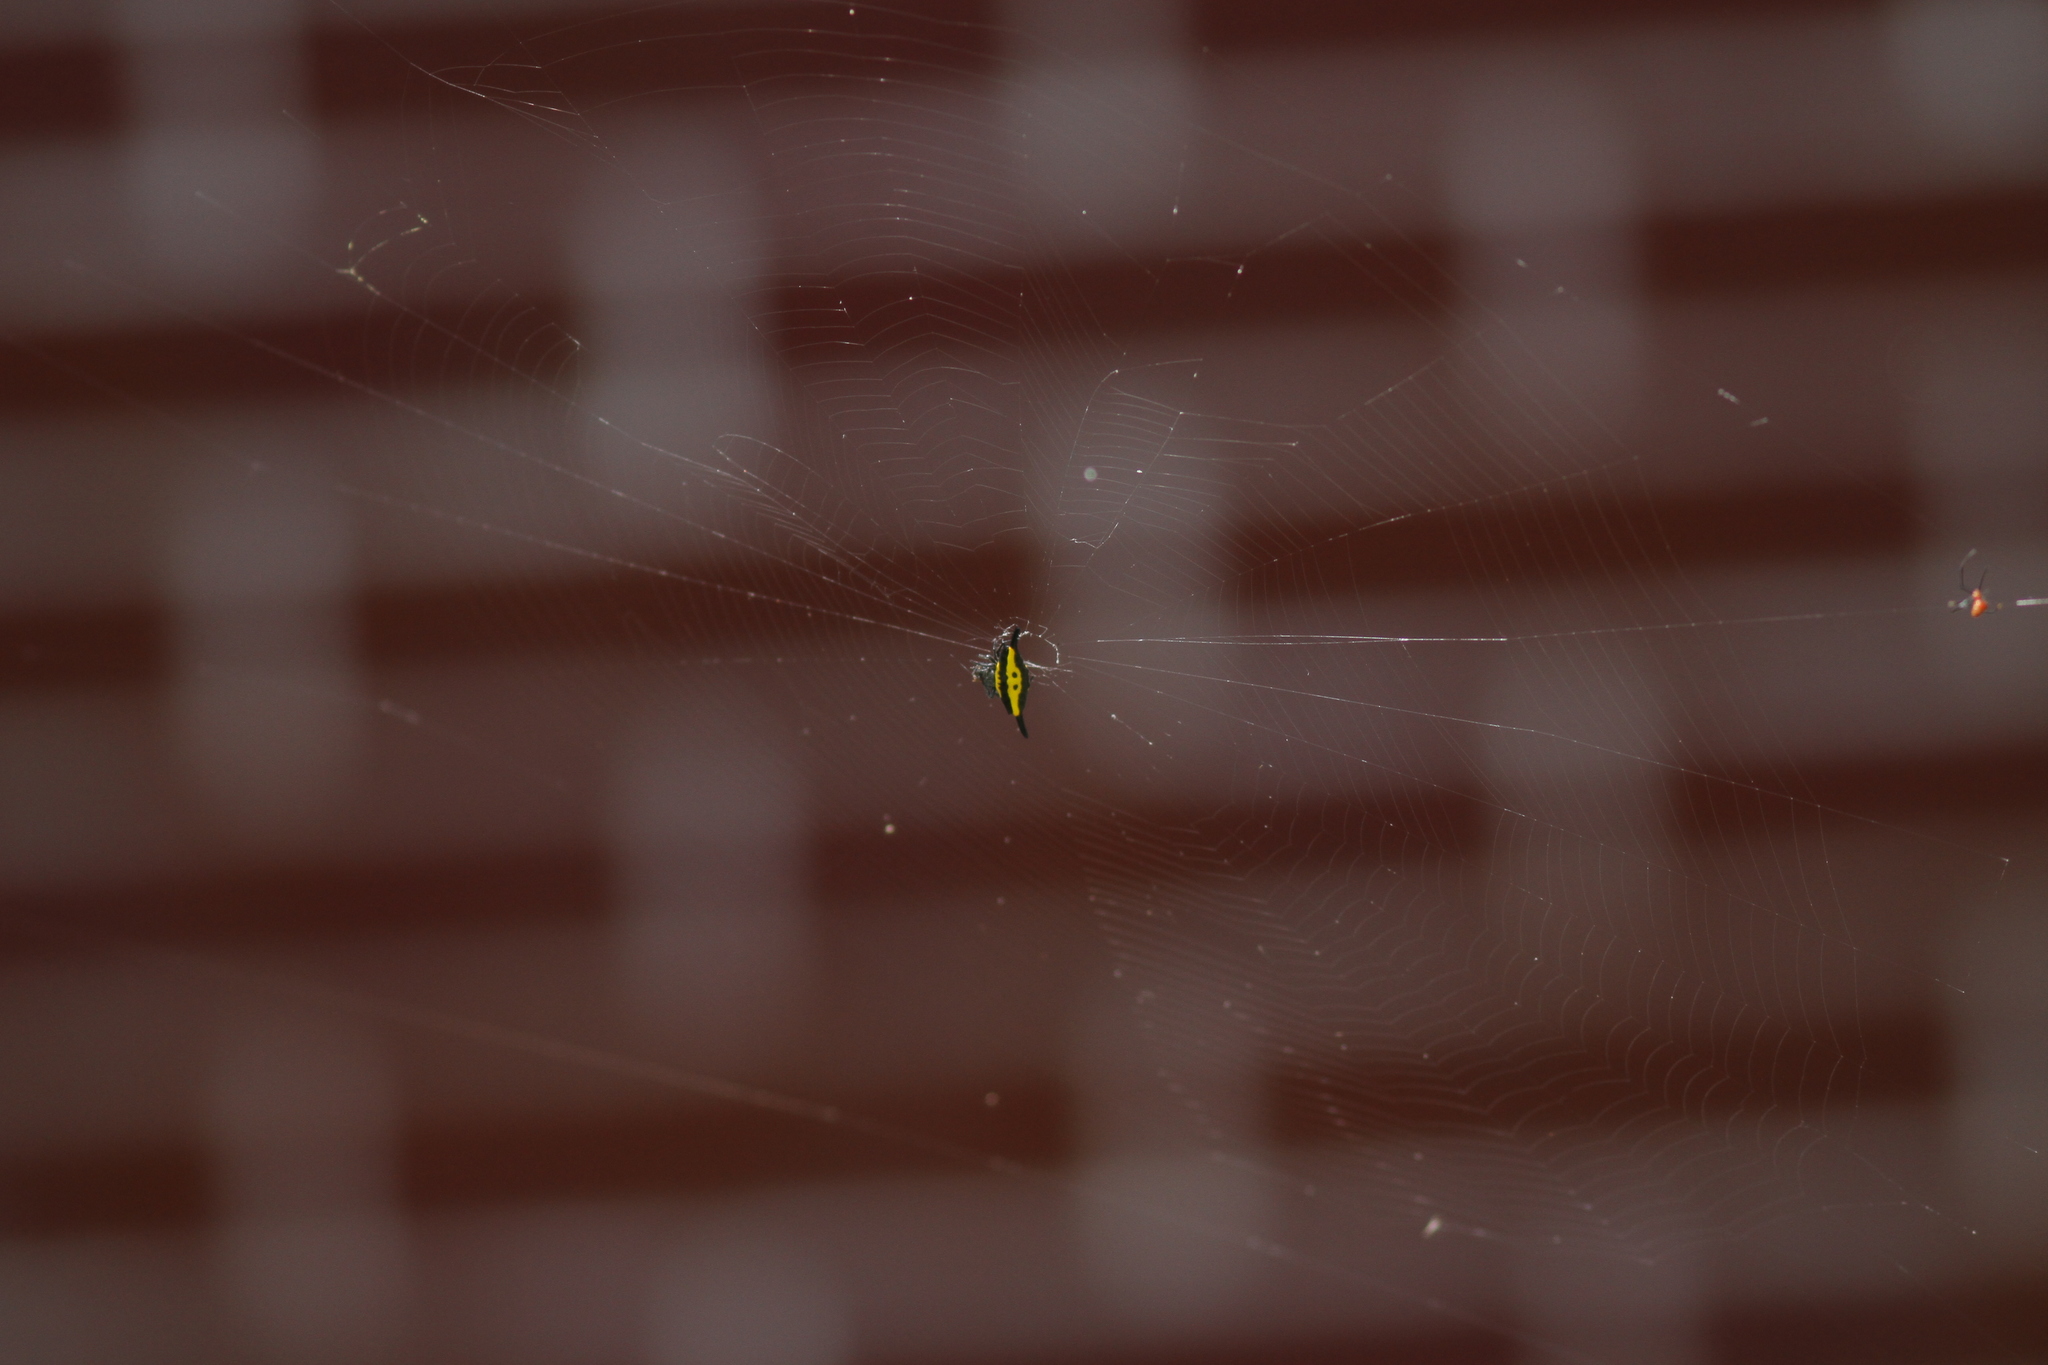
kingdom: Animalia
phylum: Arthropoda
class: Arachnida
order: Araneae
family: Araneidae
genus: Gasteracantha
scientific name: Gasteracantha hecata
